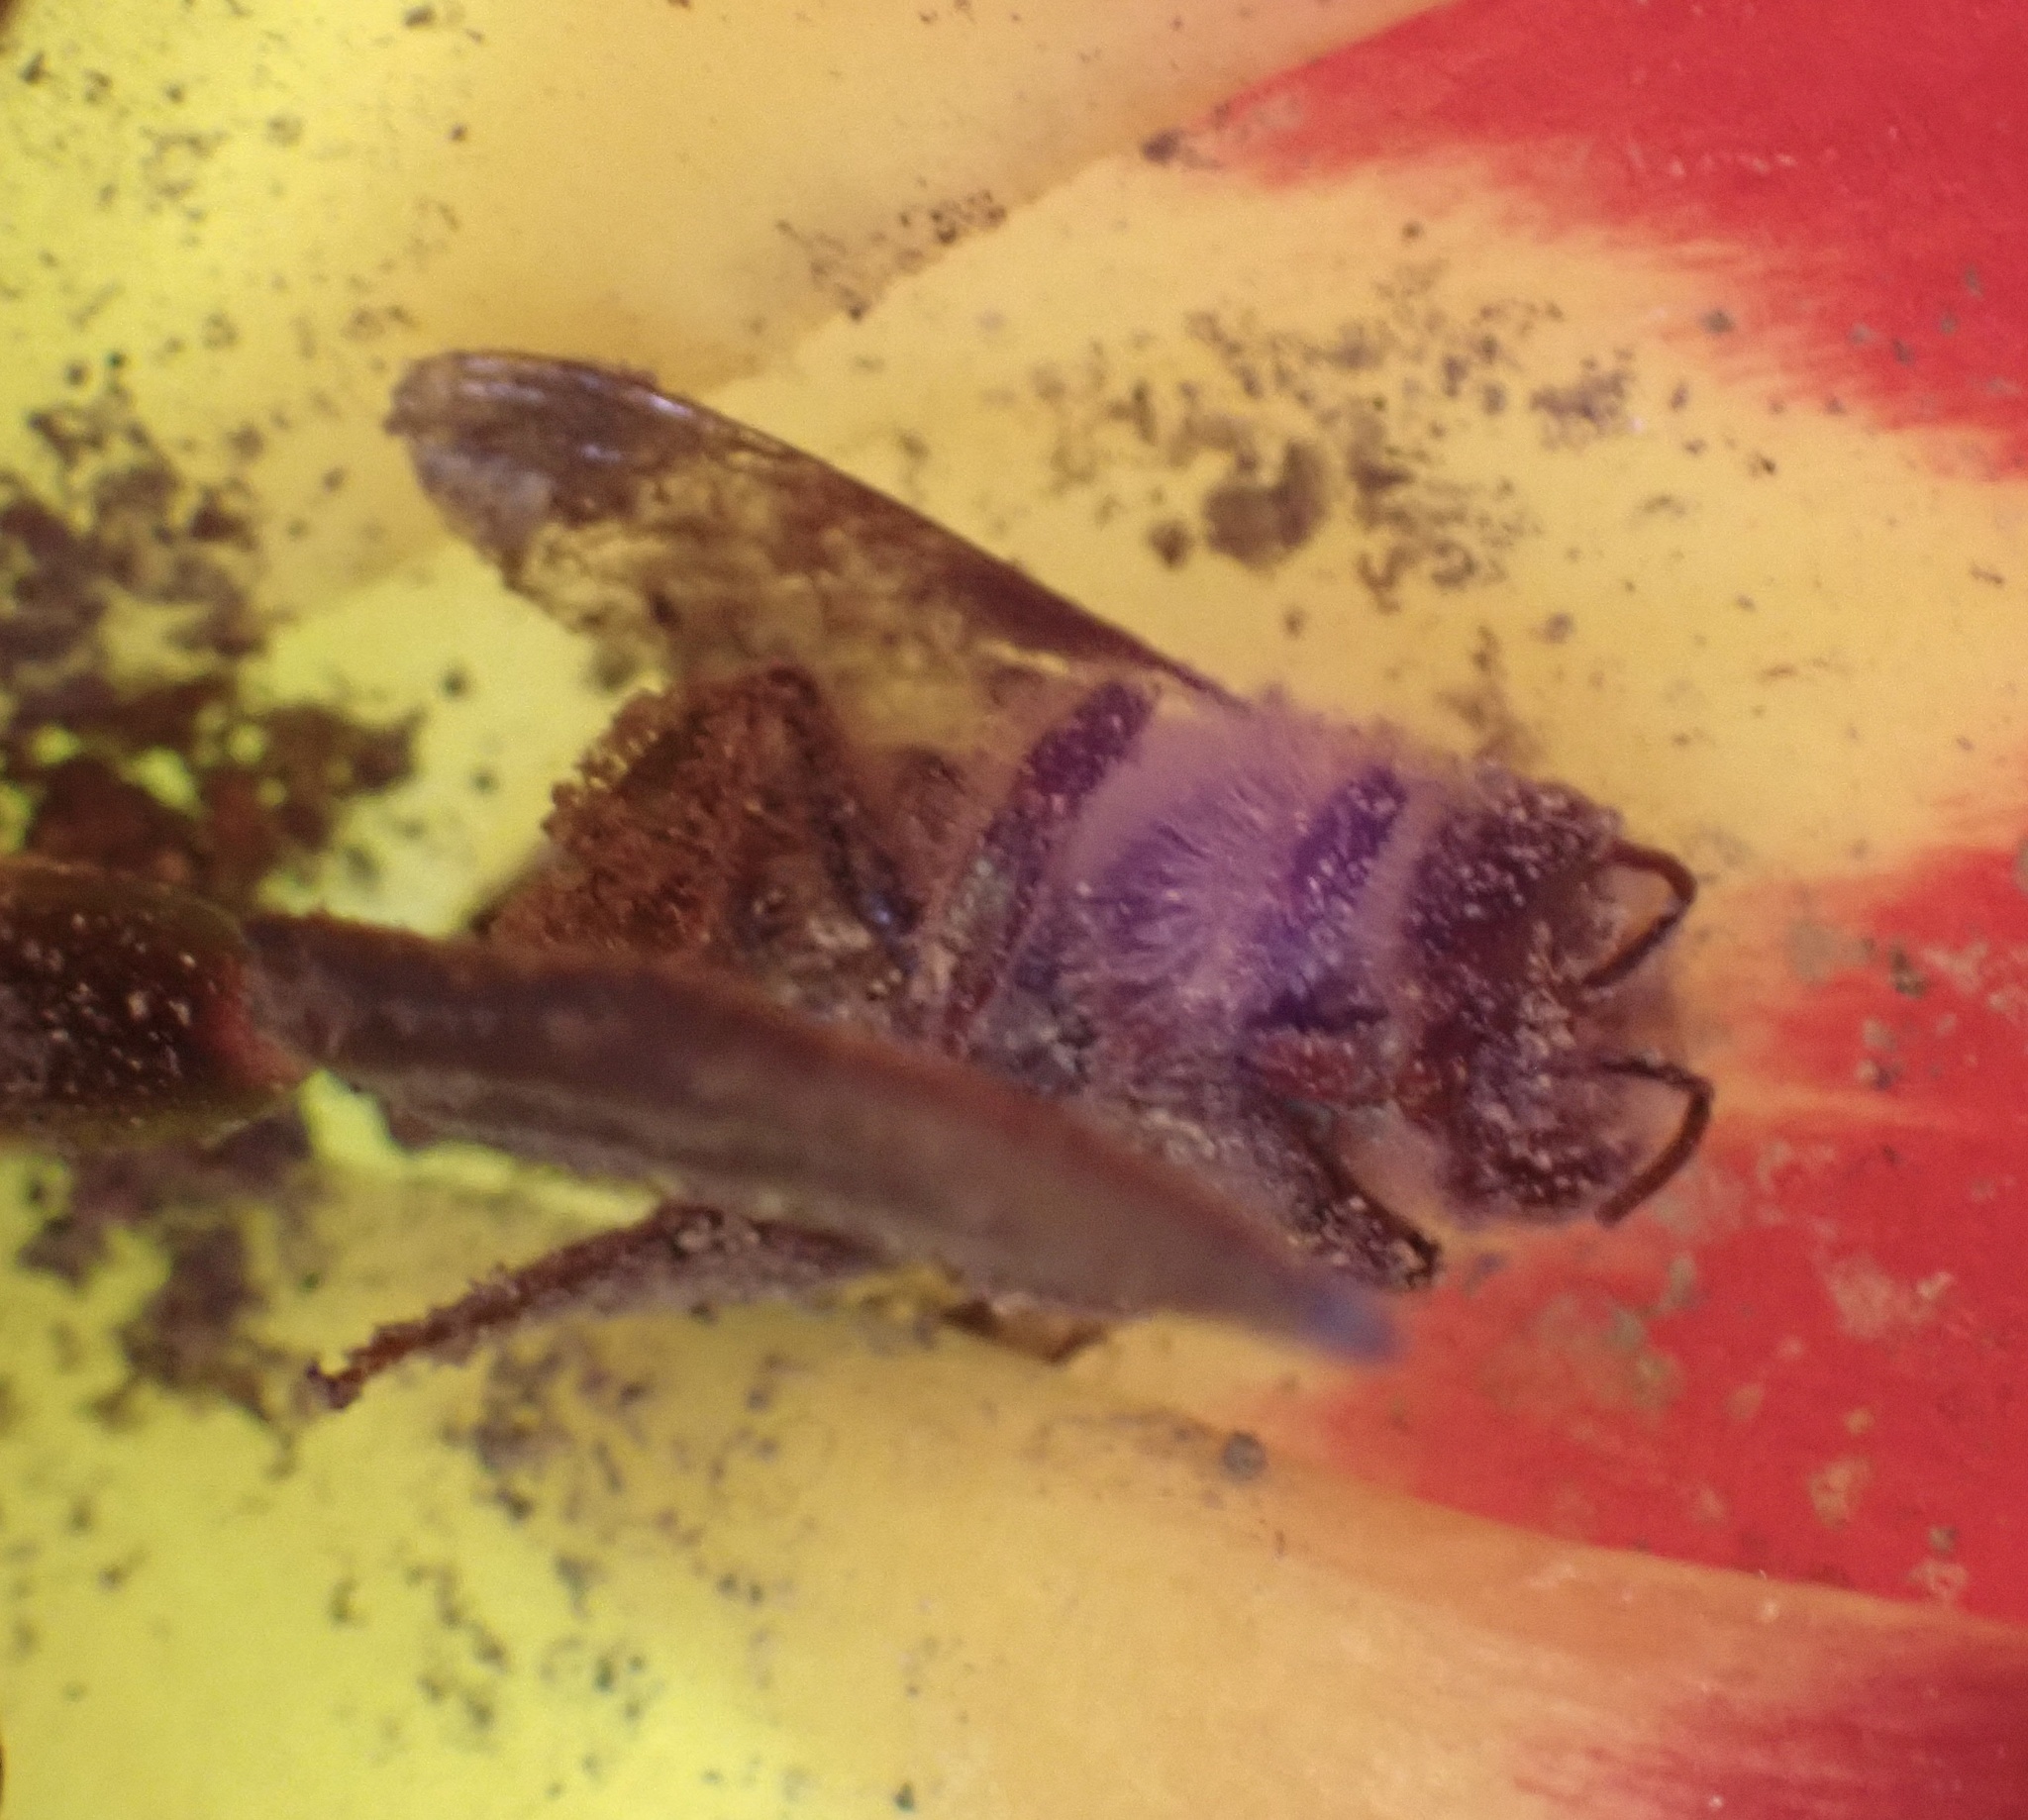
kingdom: Animalia
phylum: Arthropoda
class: Insecta
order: Hymenoptera
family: Apidae
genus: Apis
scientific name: Apis mellifera
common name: Honey bee
